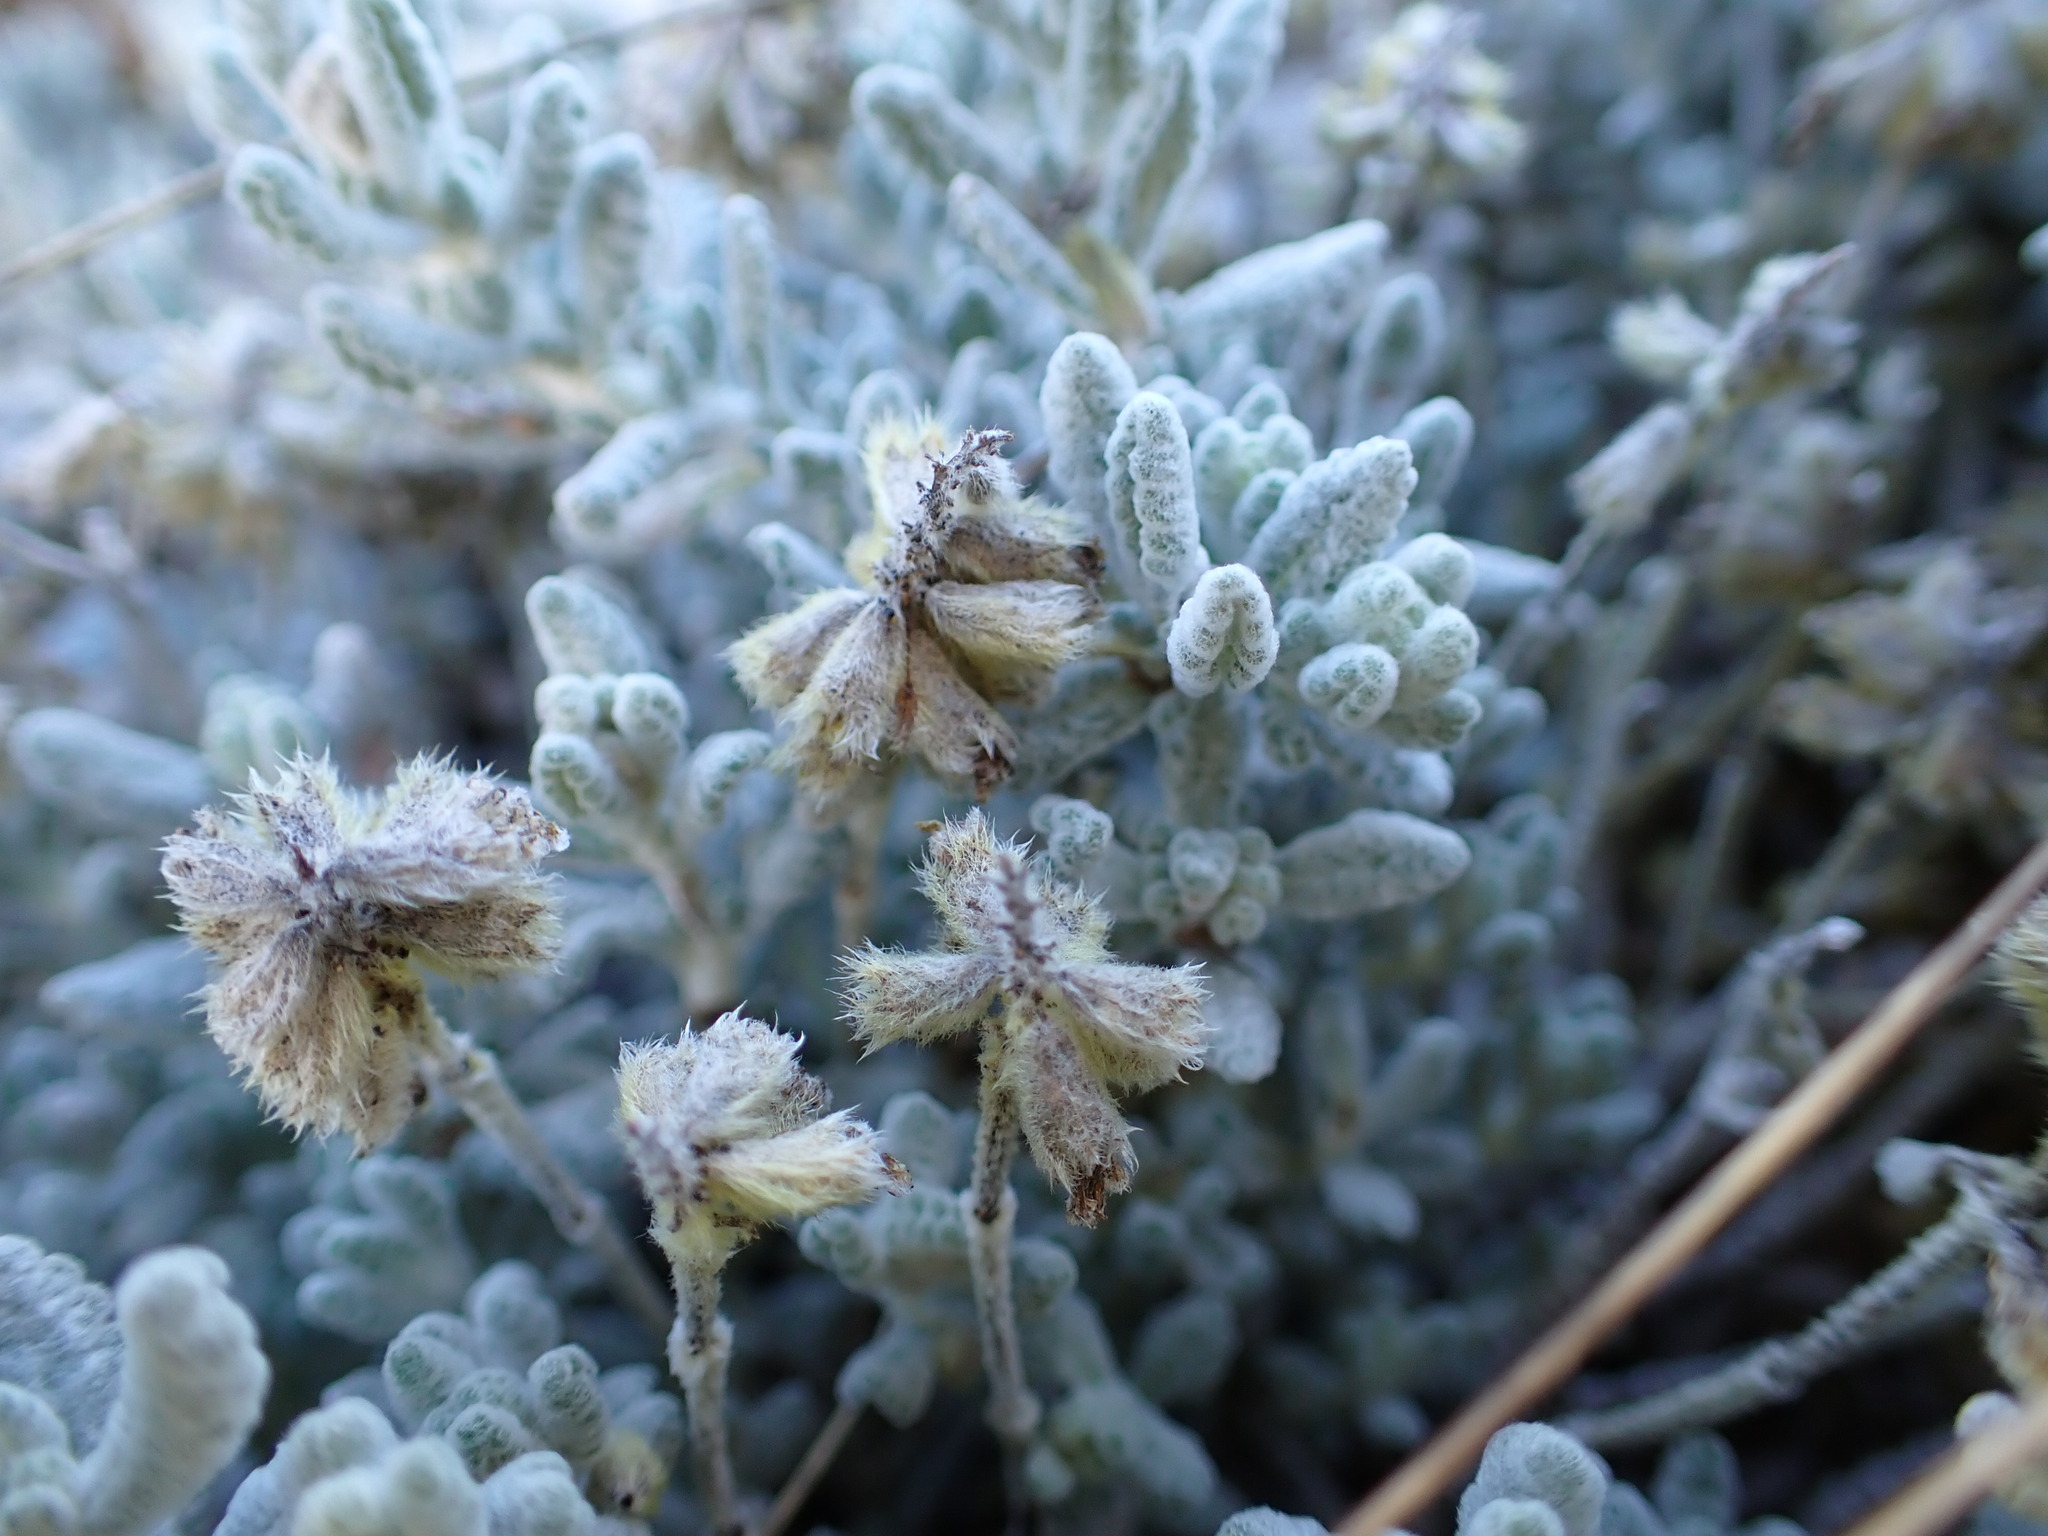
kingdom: Plantae
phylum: Tracheophyta
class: Magnoliopsida
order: Lamiales
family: Lamiaceae
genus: Teucrium
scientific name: Teucrium aureum
